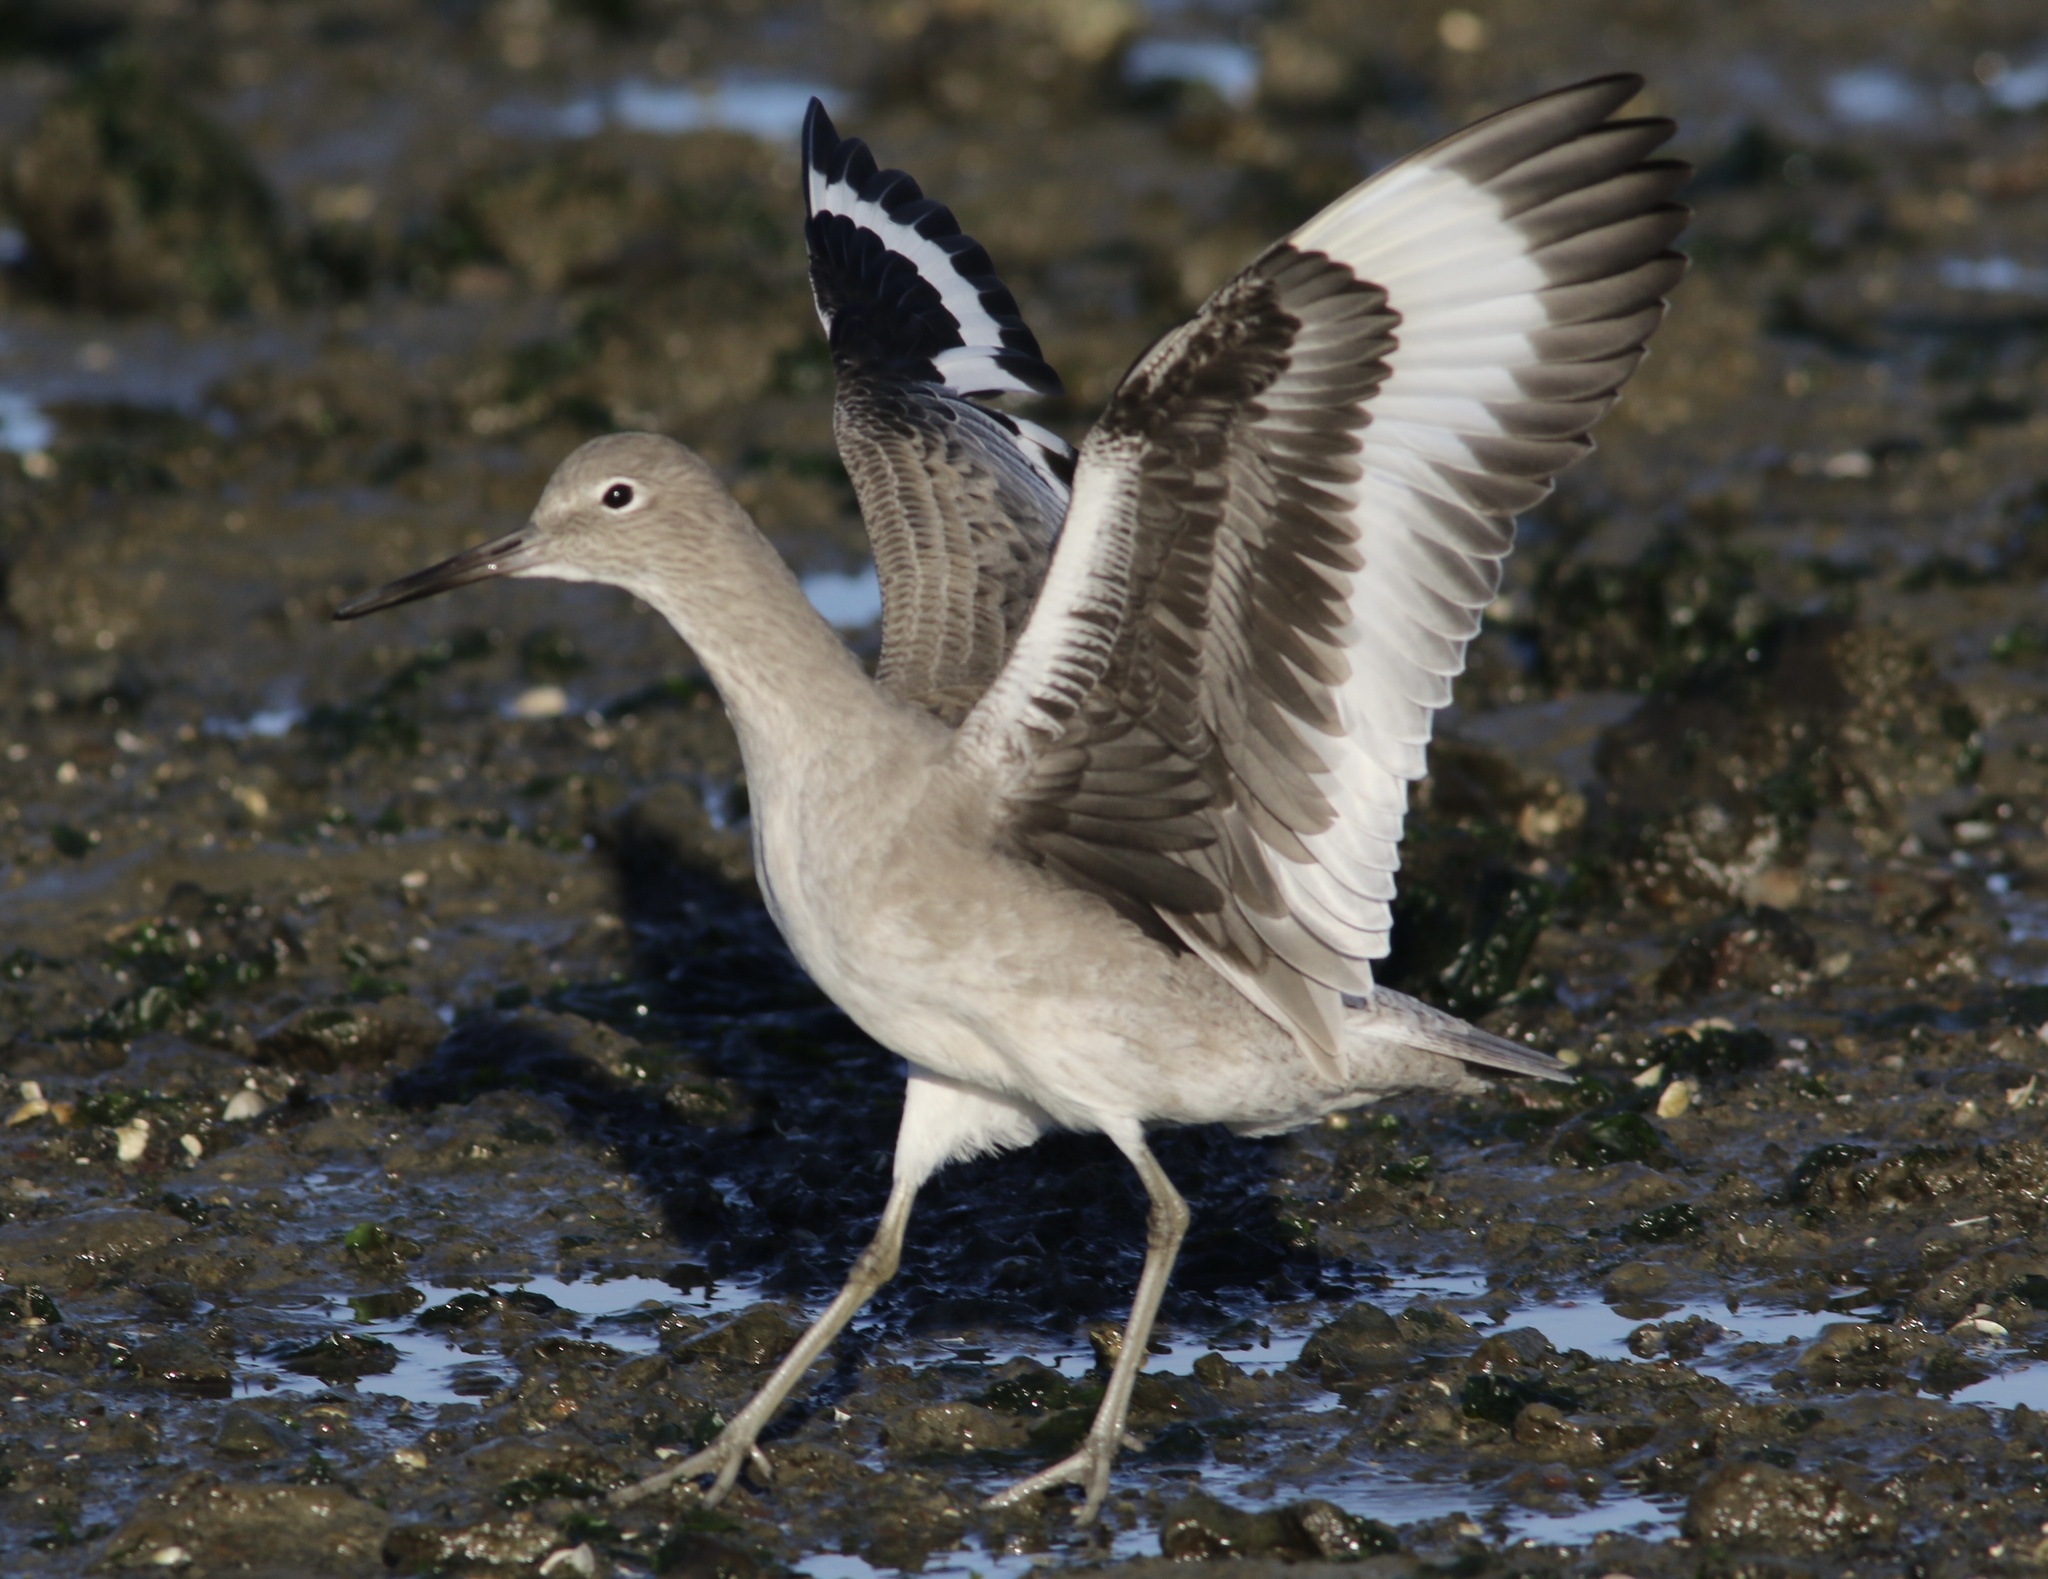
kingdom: Animalia
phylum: Chordata
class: Aves
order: Charadriiformes
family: Scolopacidae
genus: Tringa
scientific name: Tringa semipalmata
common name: Willet
